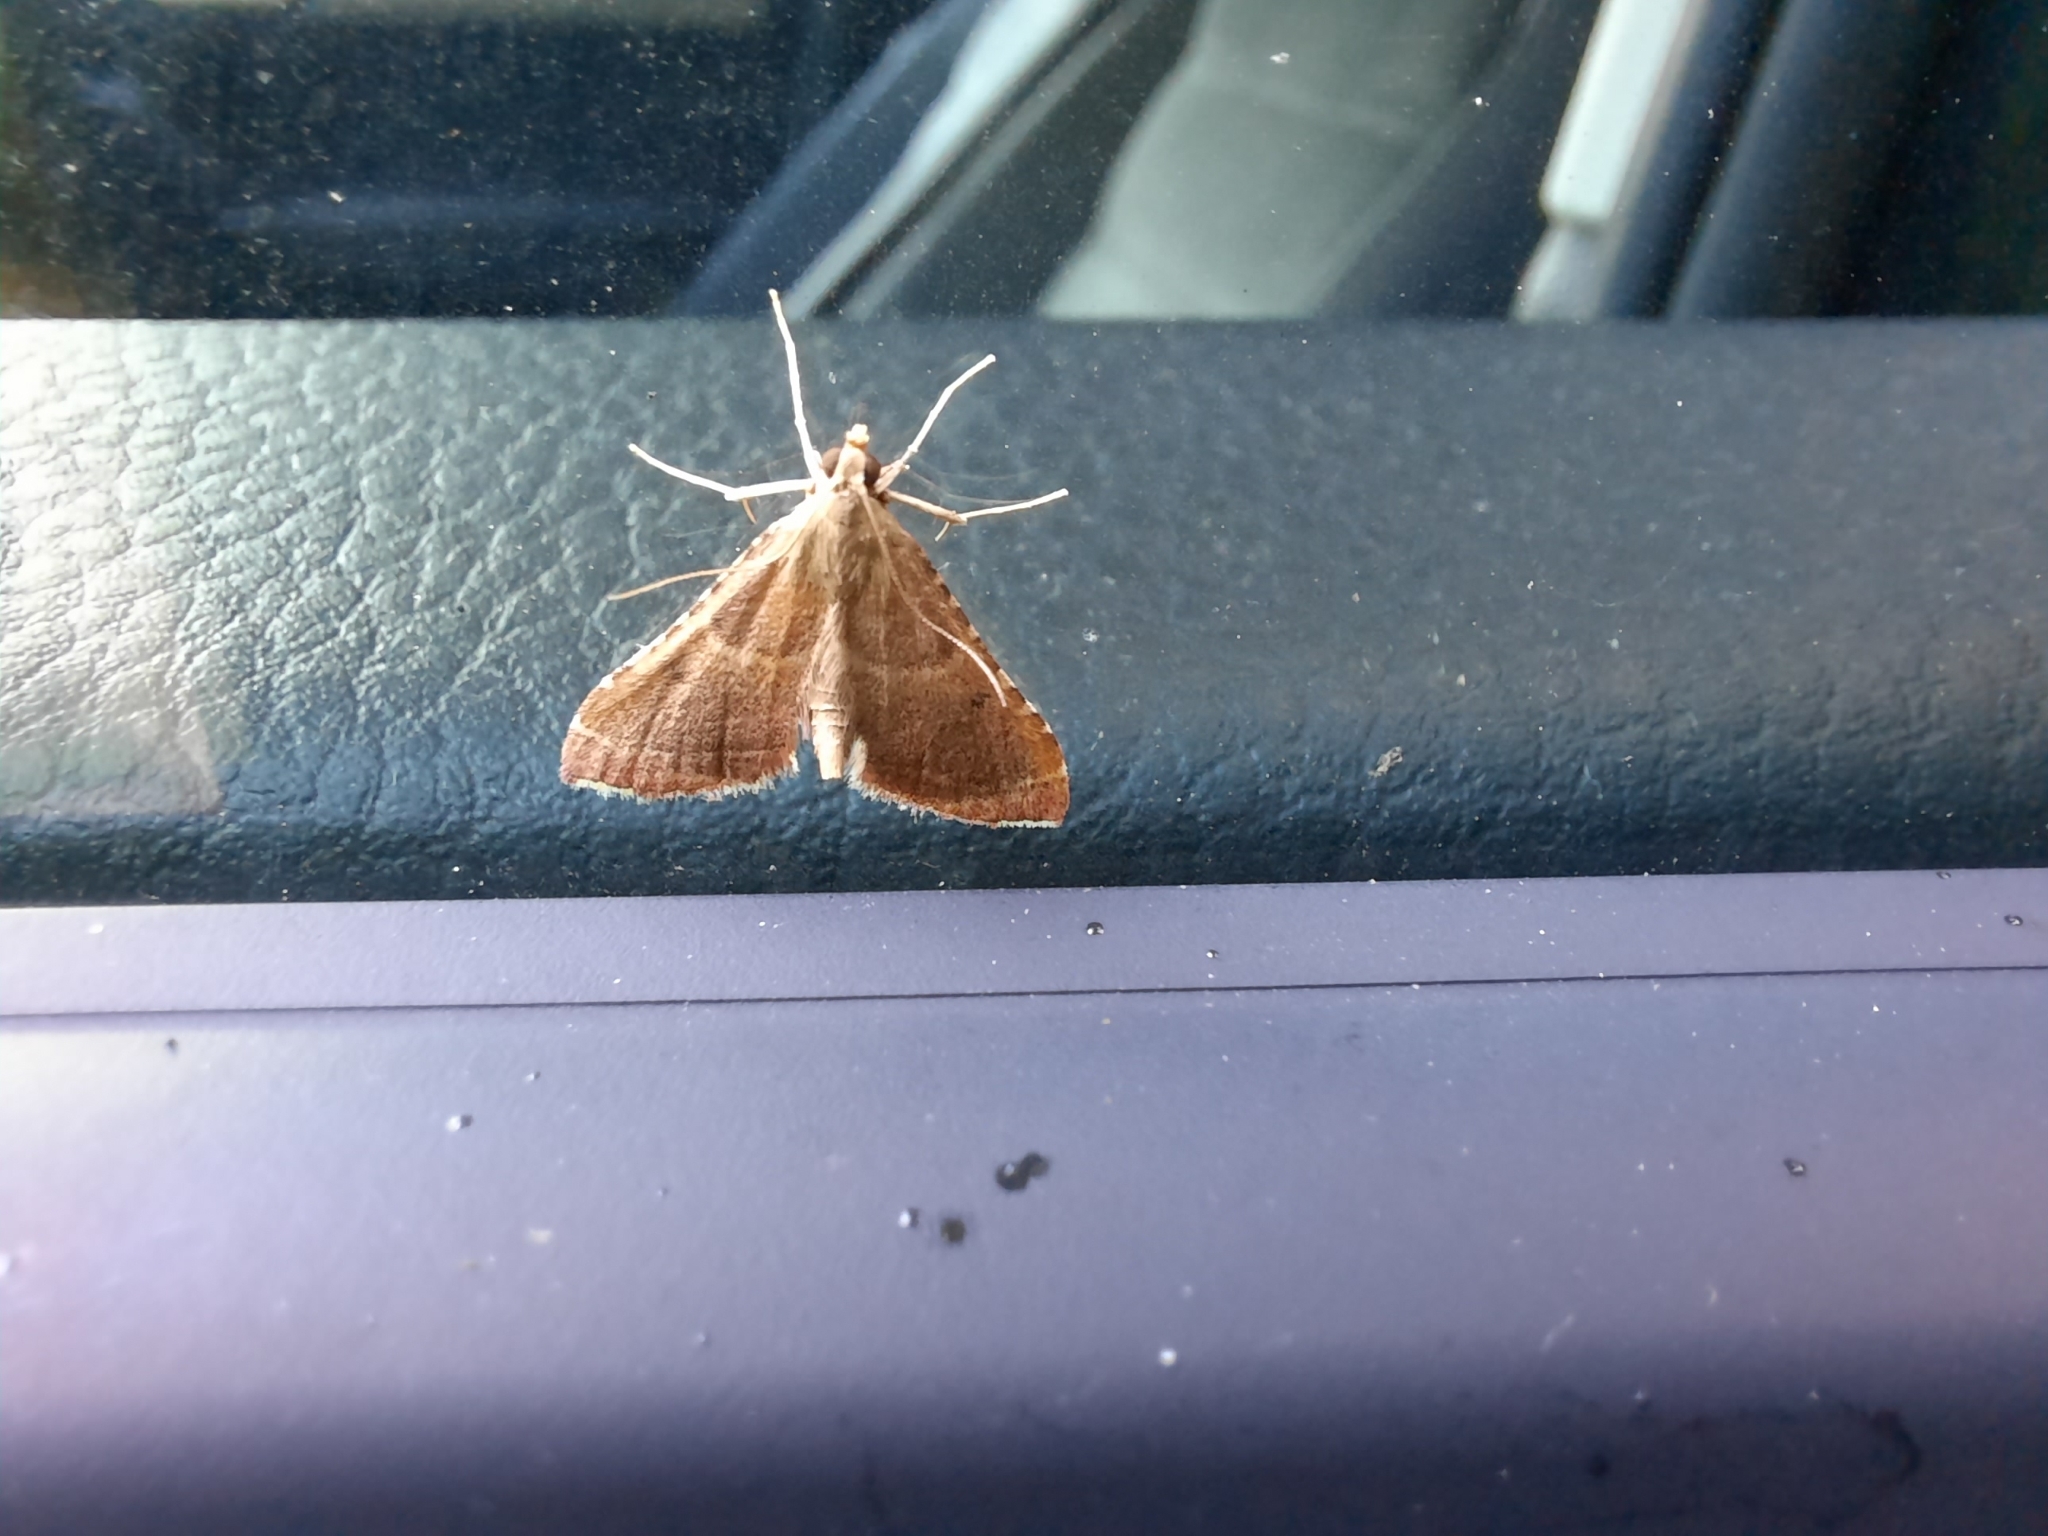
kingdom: Animalia
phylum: Arthropoda
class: Insecta
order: Lepidoptera
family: Pyralidae
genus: Endotricha
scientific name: Endotricha flammealis
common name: Rosy tabby
